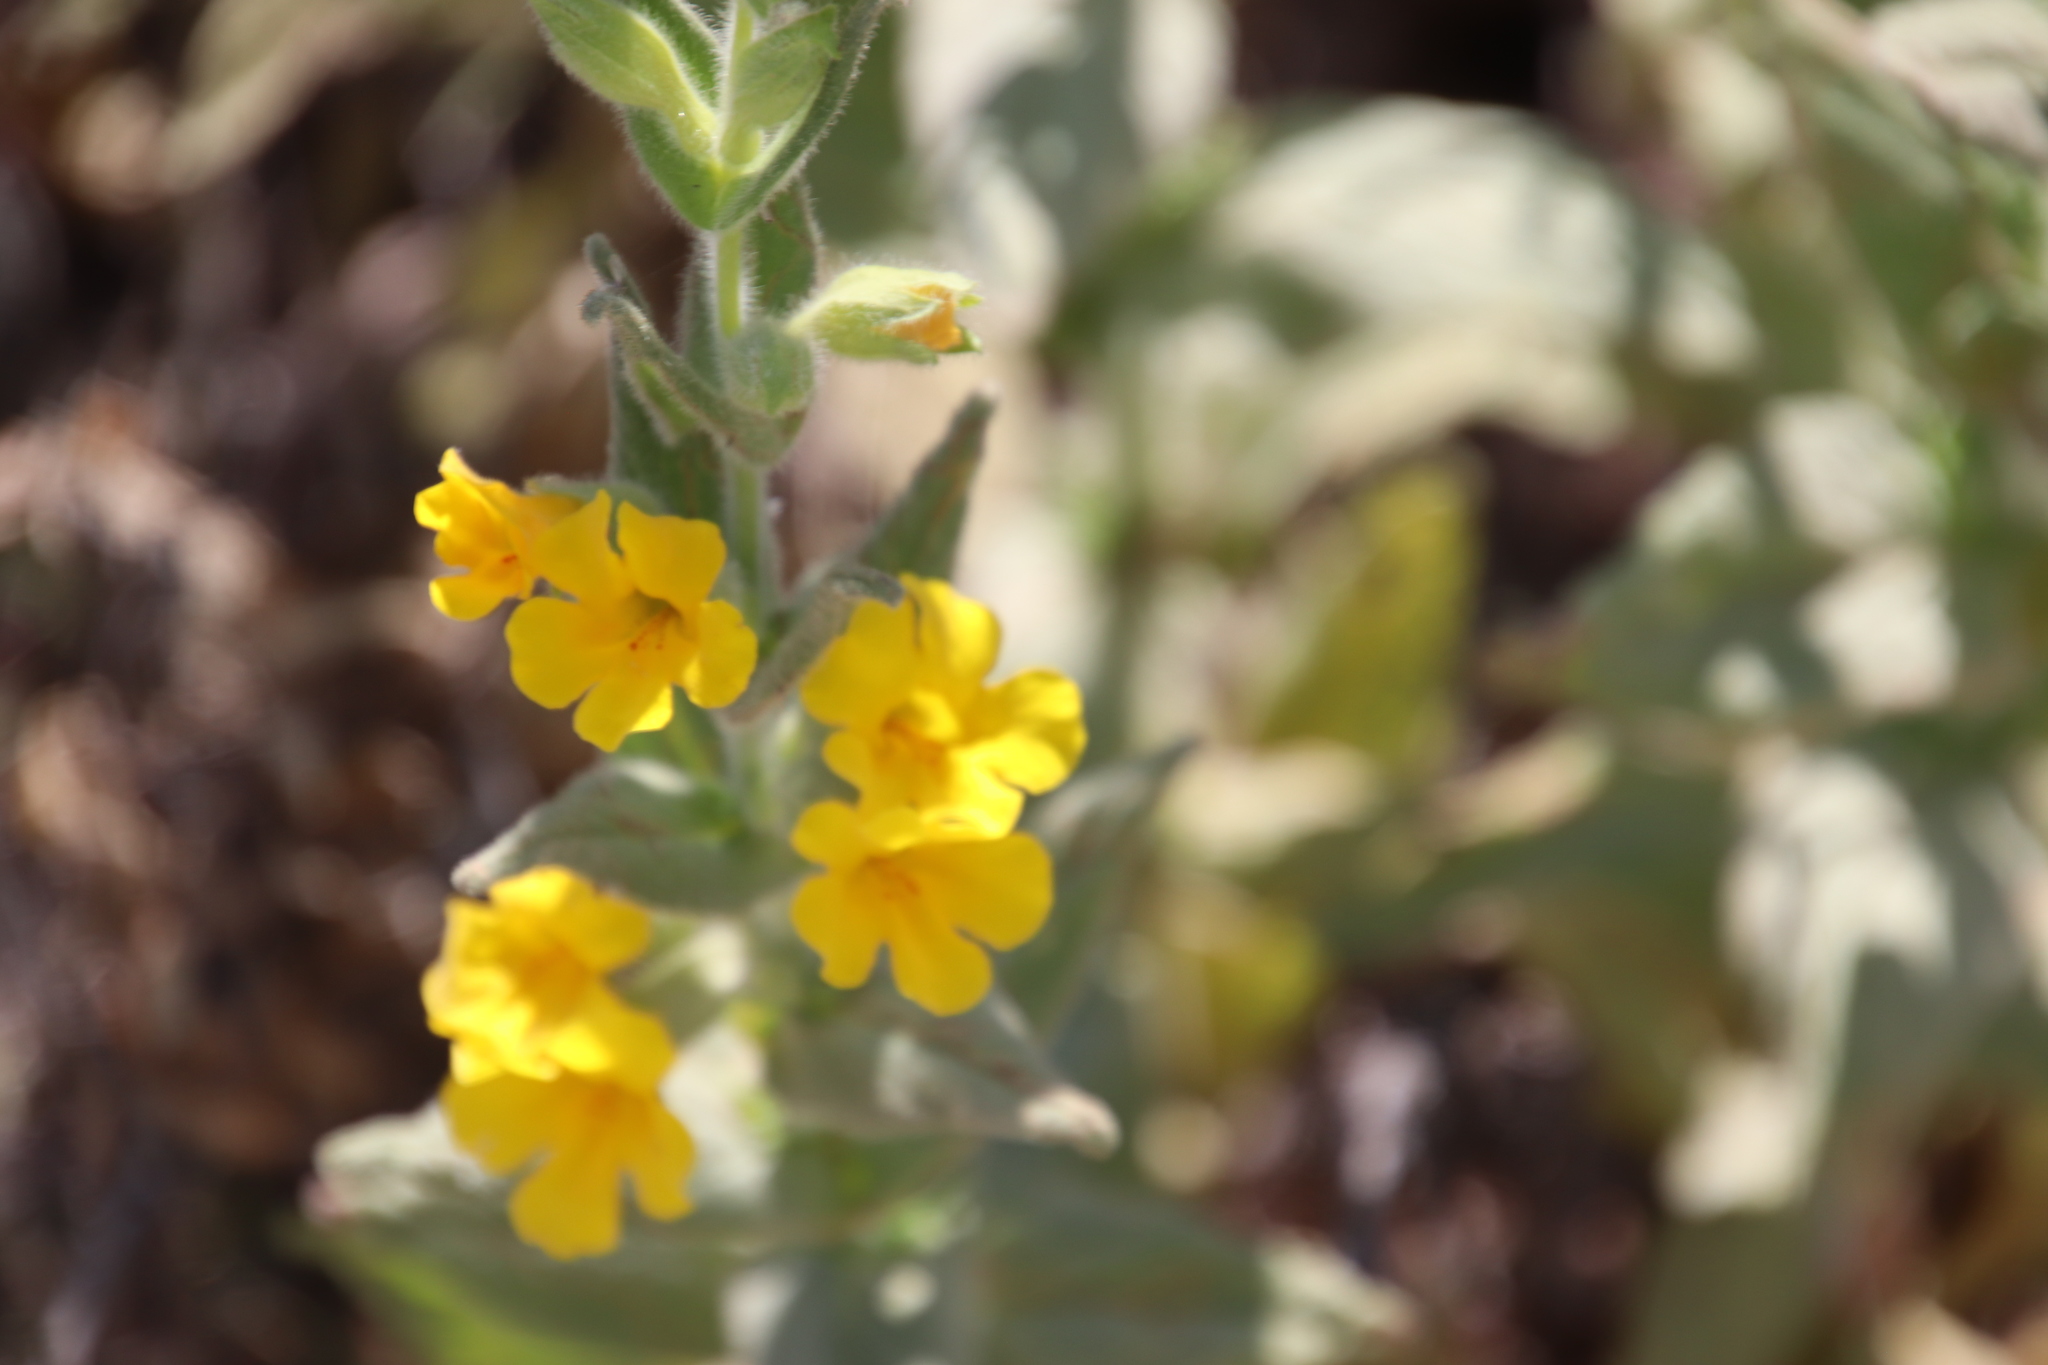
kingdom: Plantae
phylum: Tracheophyta
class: Magnoliopsida
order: Lamiales
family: Phrymaceae
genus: Diplacus
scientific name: Diplacus clevelandii
